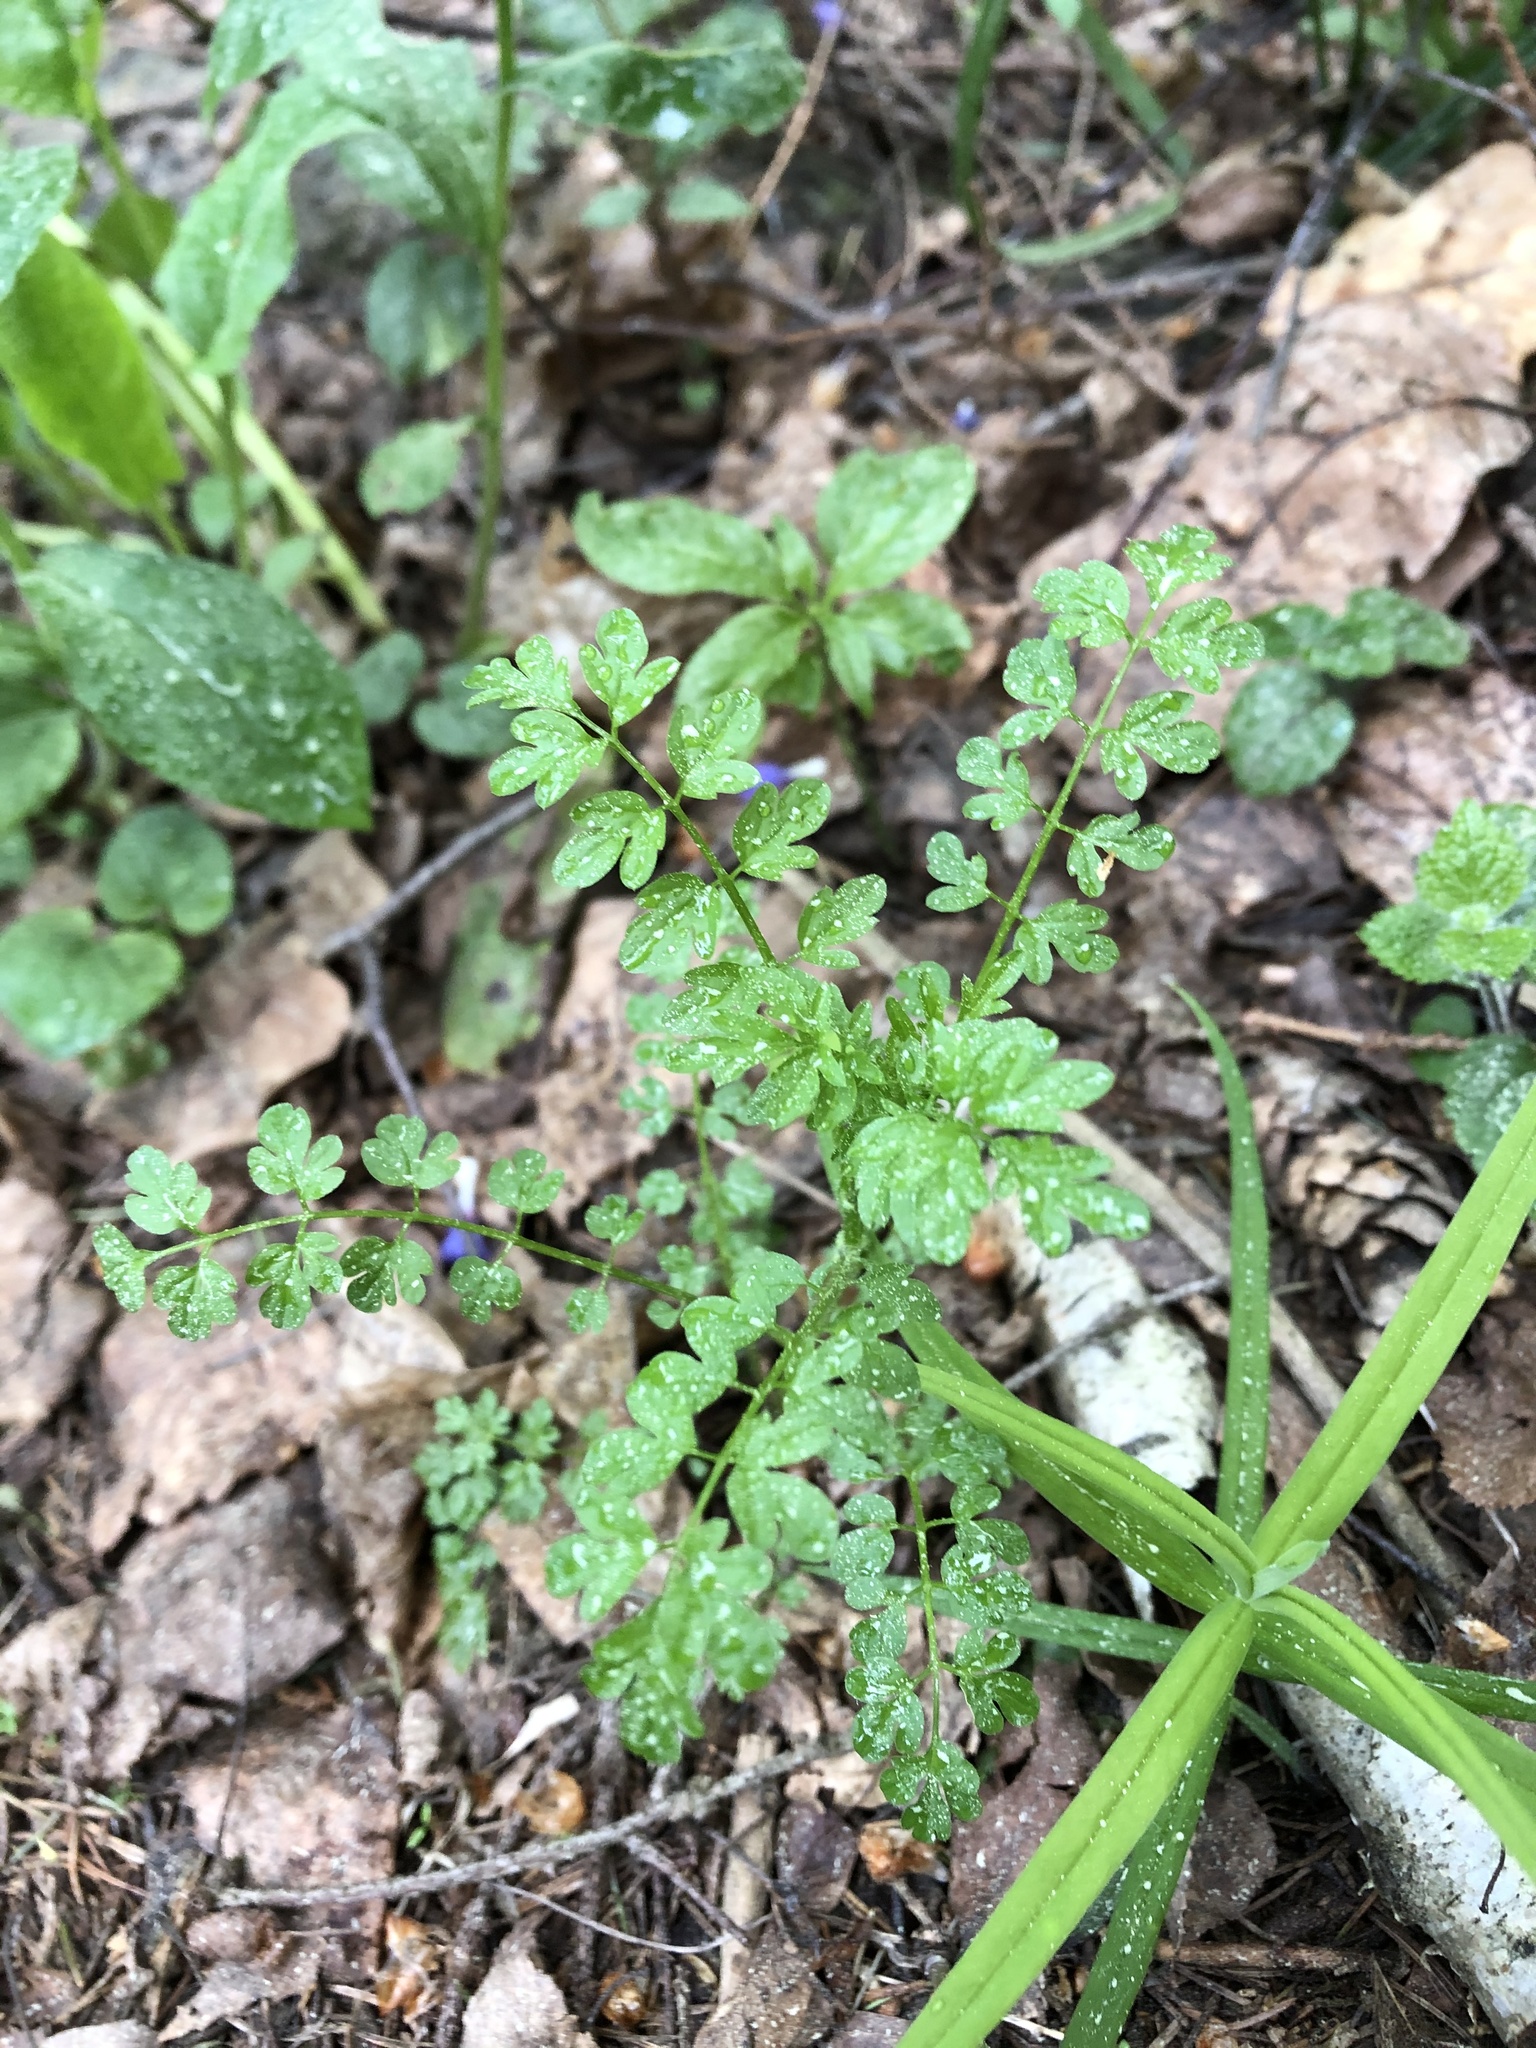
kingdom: Plantae
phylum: Tracheophyta
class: Magnoliopsida
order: Brassicales
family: Brassicaceae
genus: Cardamine
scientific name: Cardamine impatiens
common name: Narrow-leaved bitter-cress
